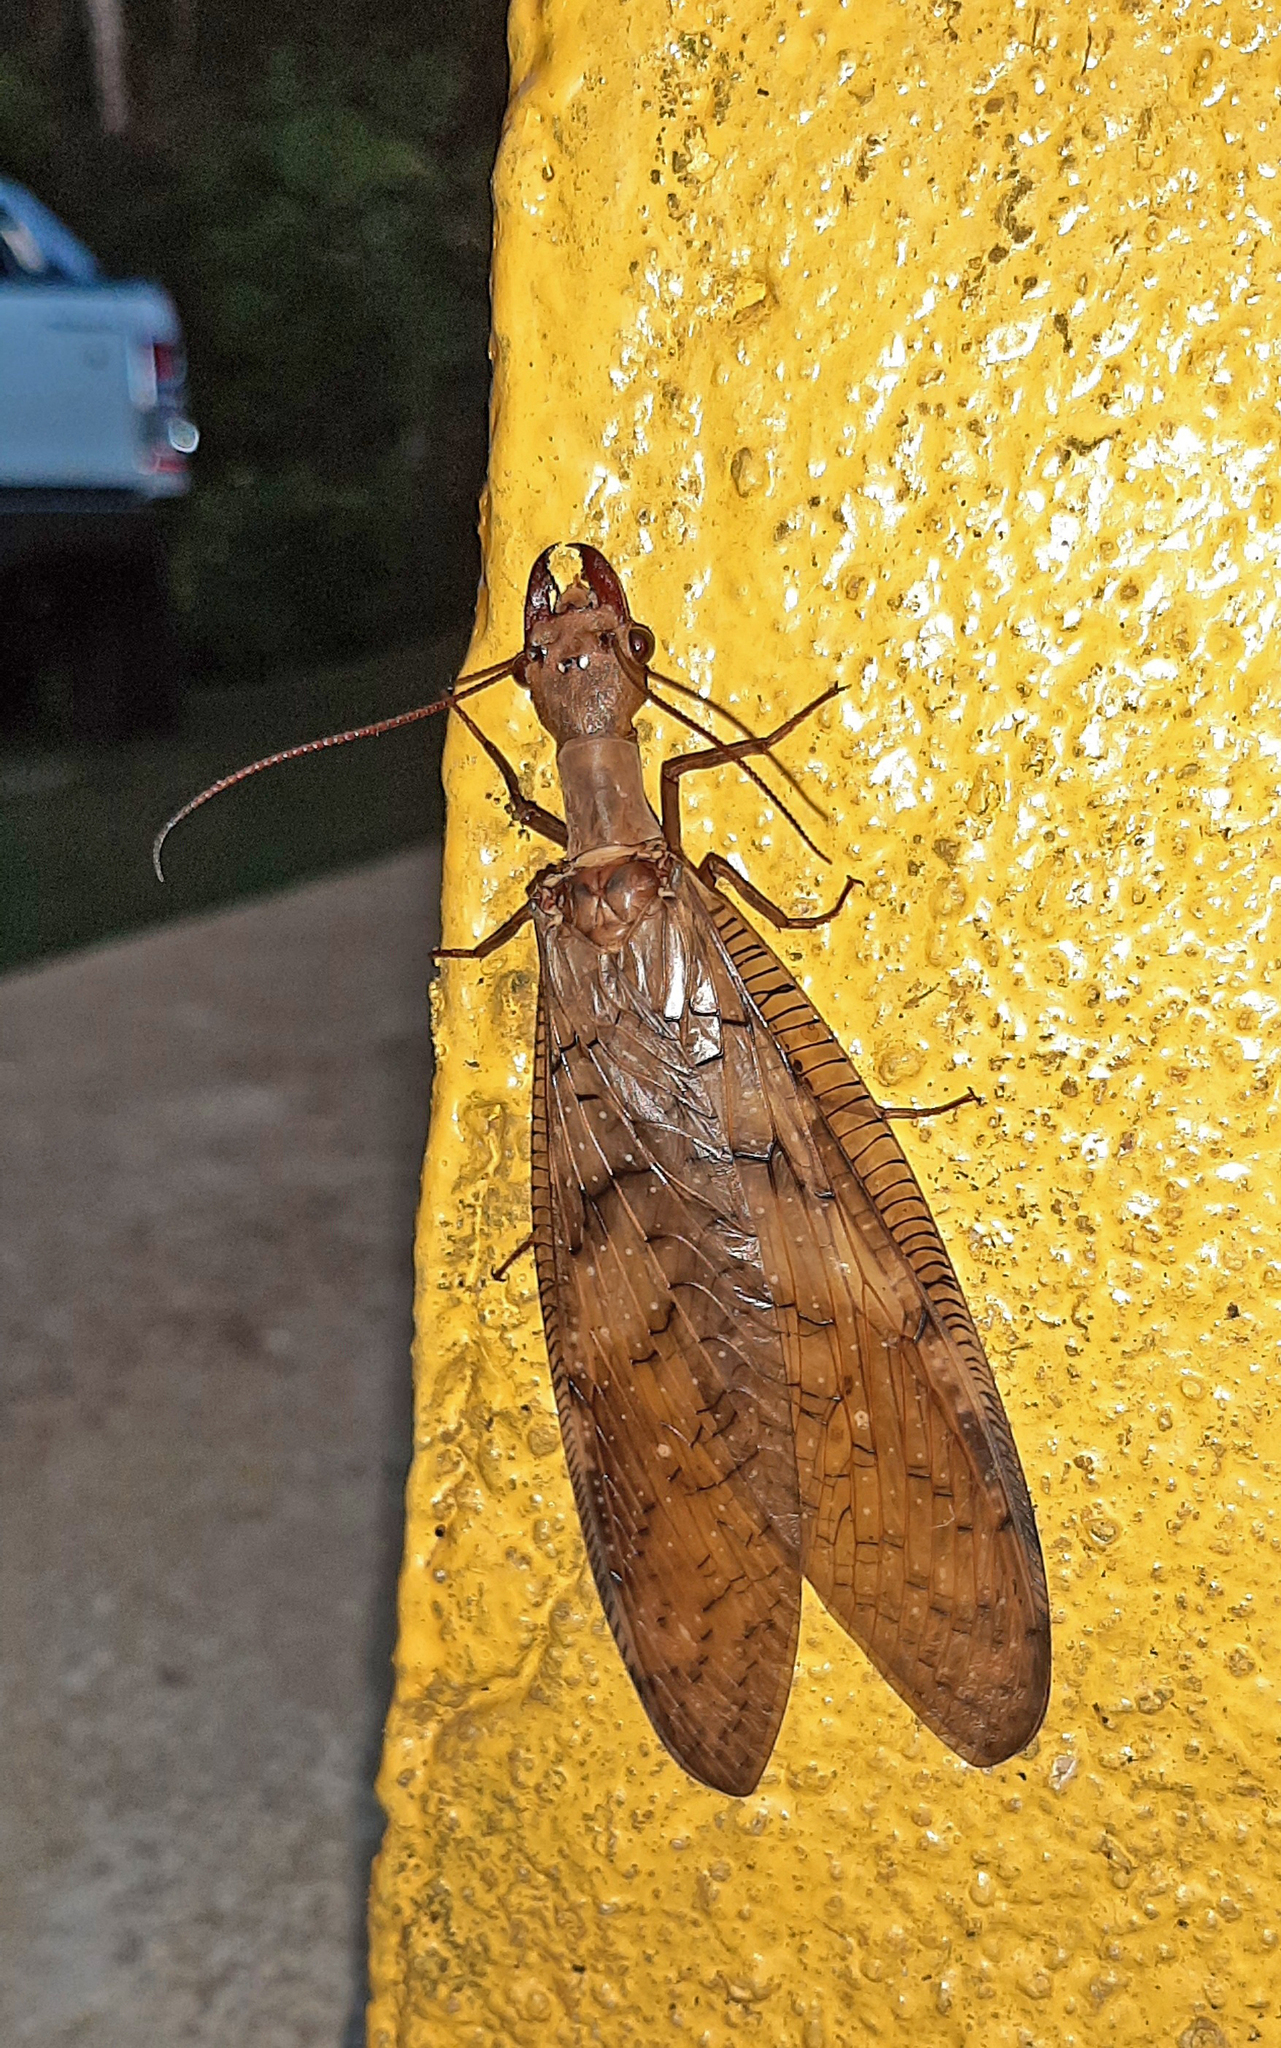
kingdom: Animalia
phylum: Arthropoda
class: Insecta
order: Megaloptera
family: Corydalidae
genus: Corydalus
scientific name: Corydalus armatus
